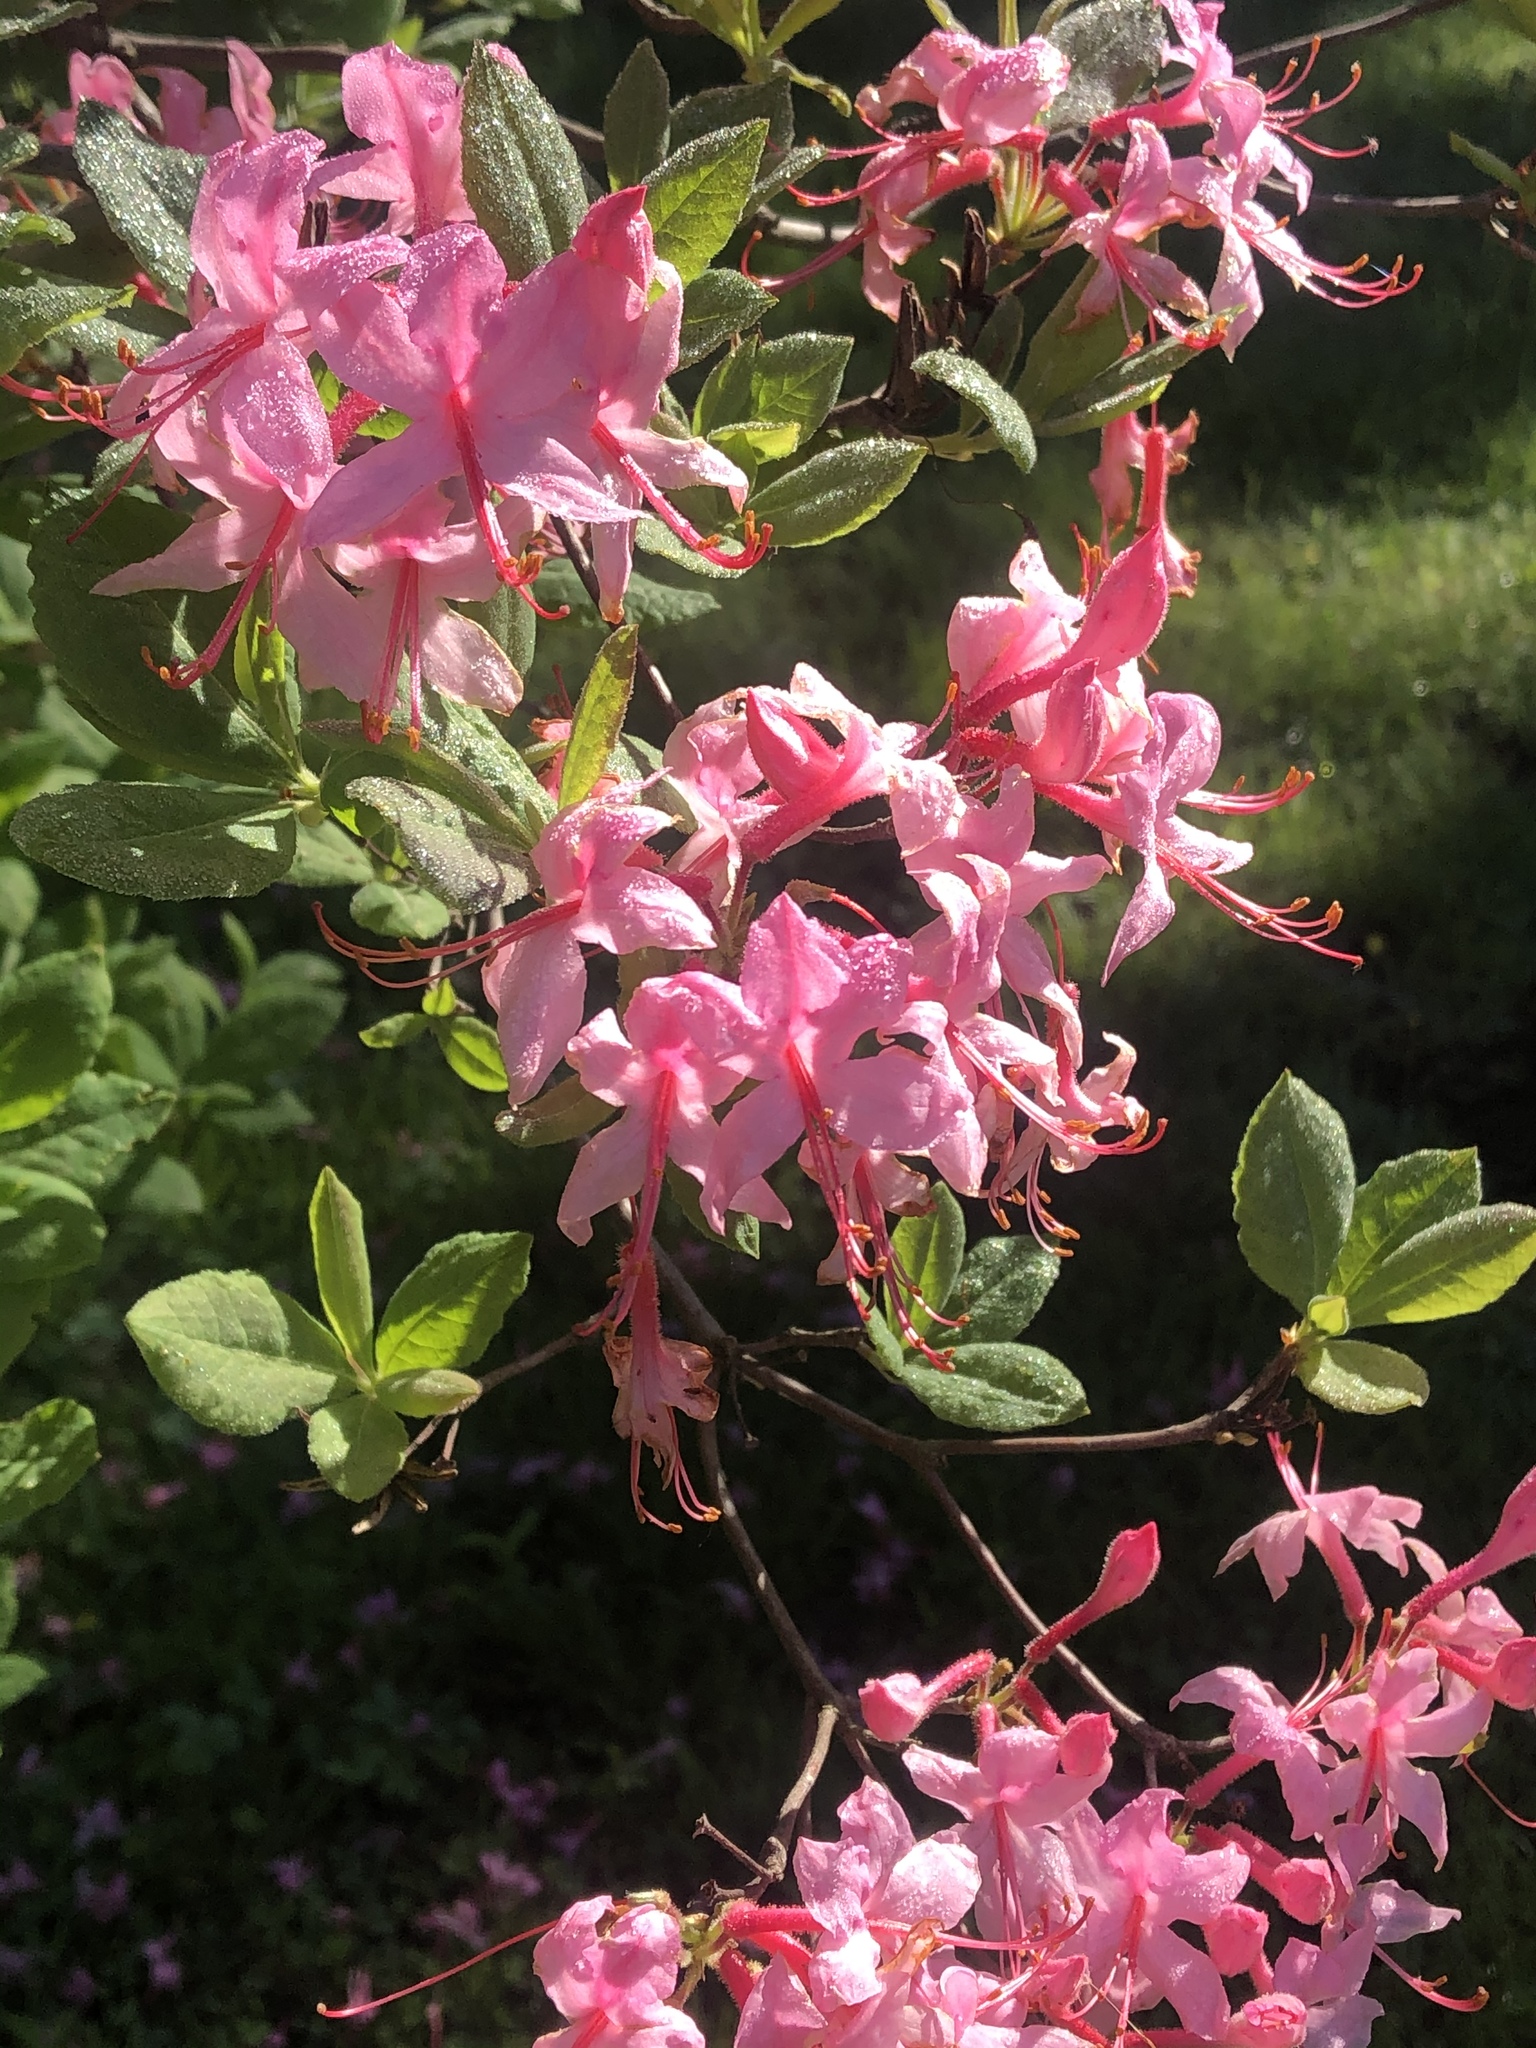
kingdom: Plantae
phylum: Tracheophyta
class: Magnoliopsida
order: Ericales
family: Ericaceae
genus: Rhododendron
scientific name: Rhododendron roseum
